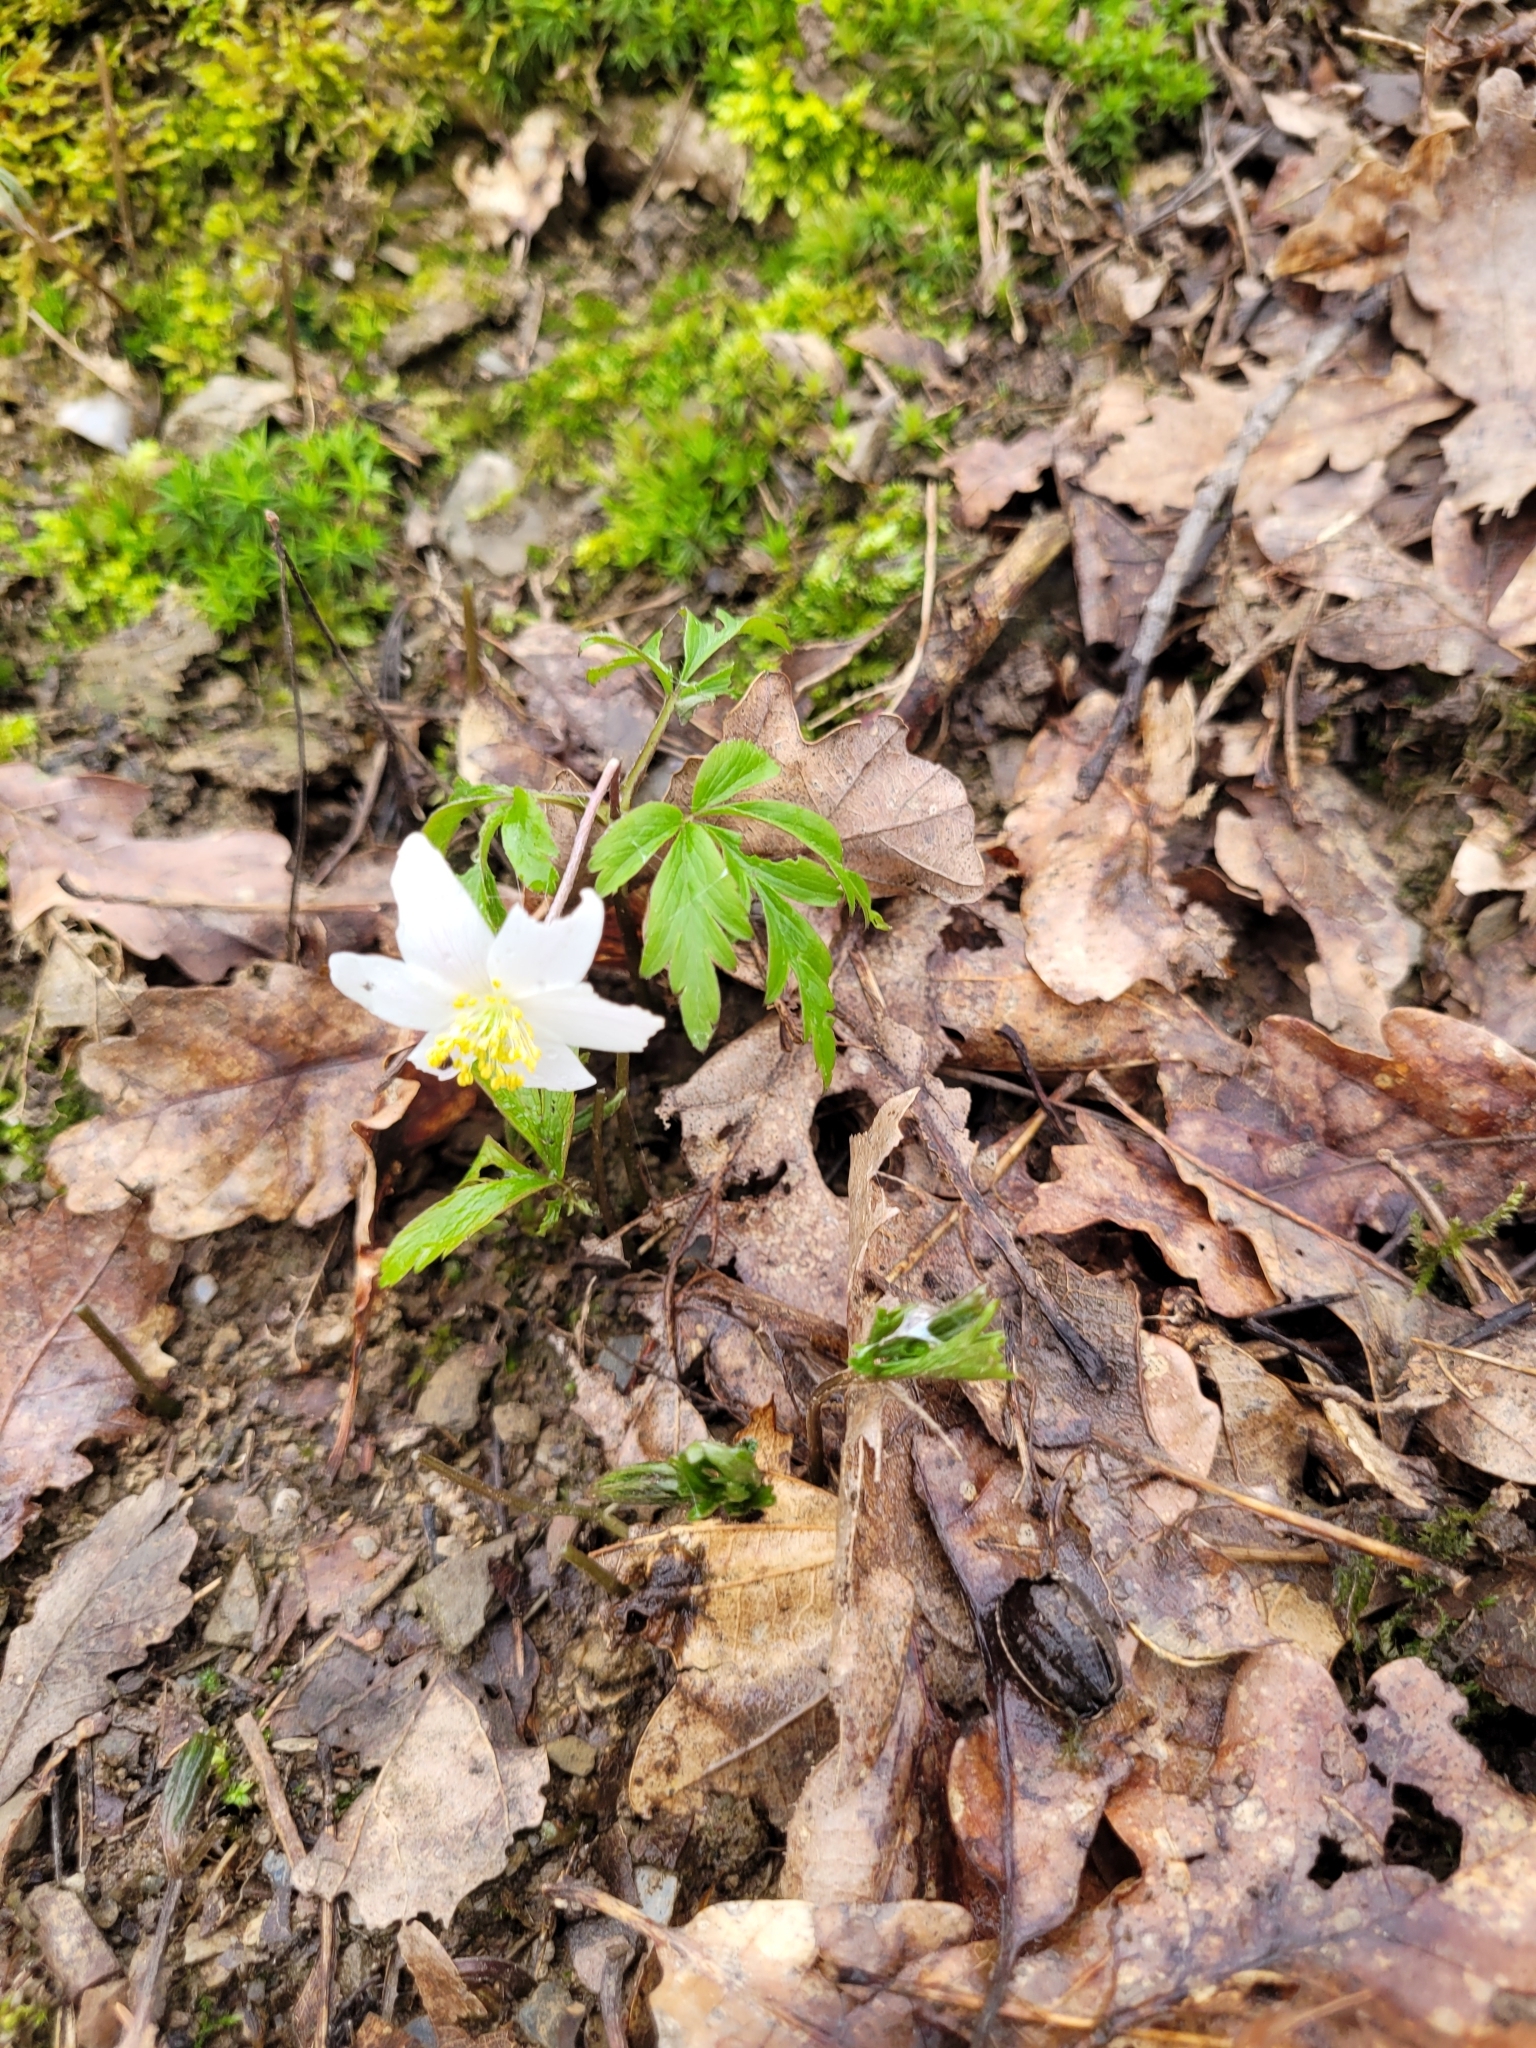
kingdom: Plantae
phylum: Tracheophyta
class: Magnoliopsida
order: Ranunculales
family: Ranunculaceae
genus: Anemone
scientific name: Anemone nemorosa
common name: Wood anemone
